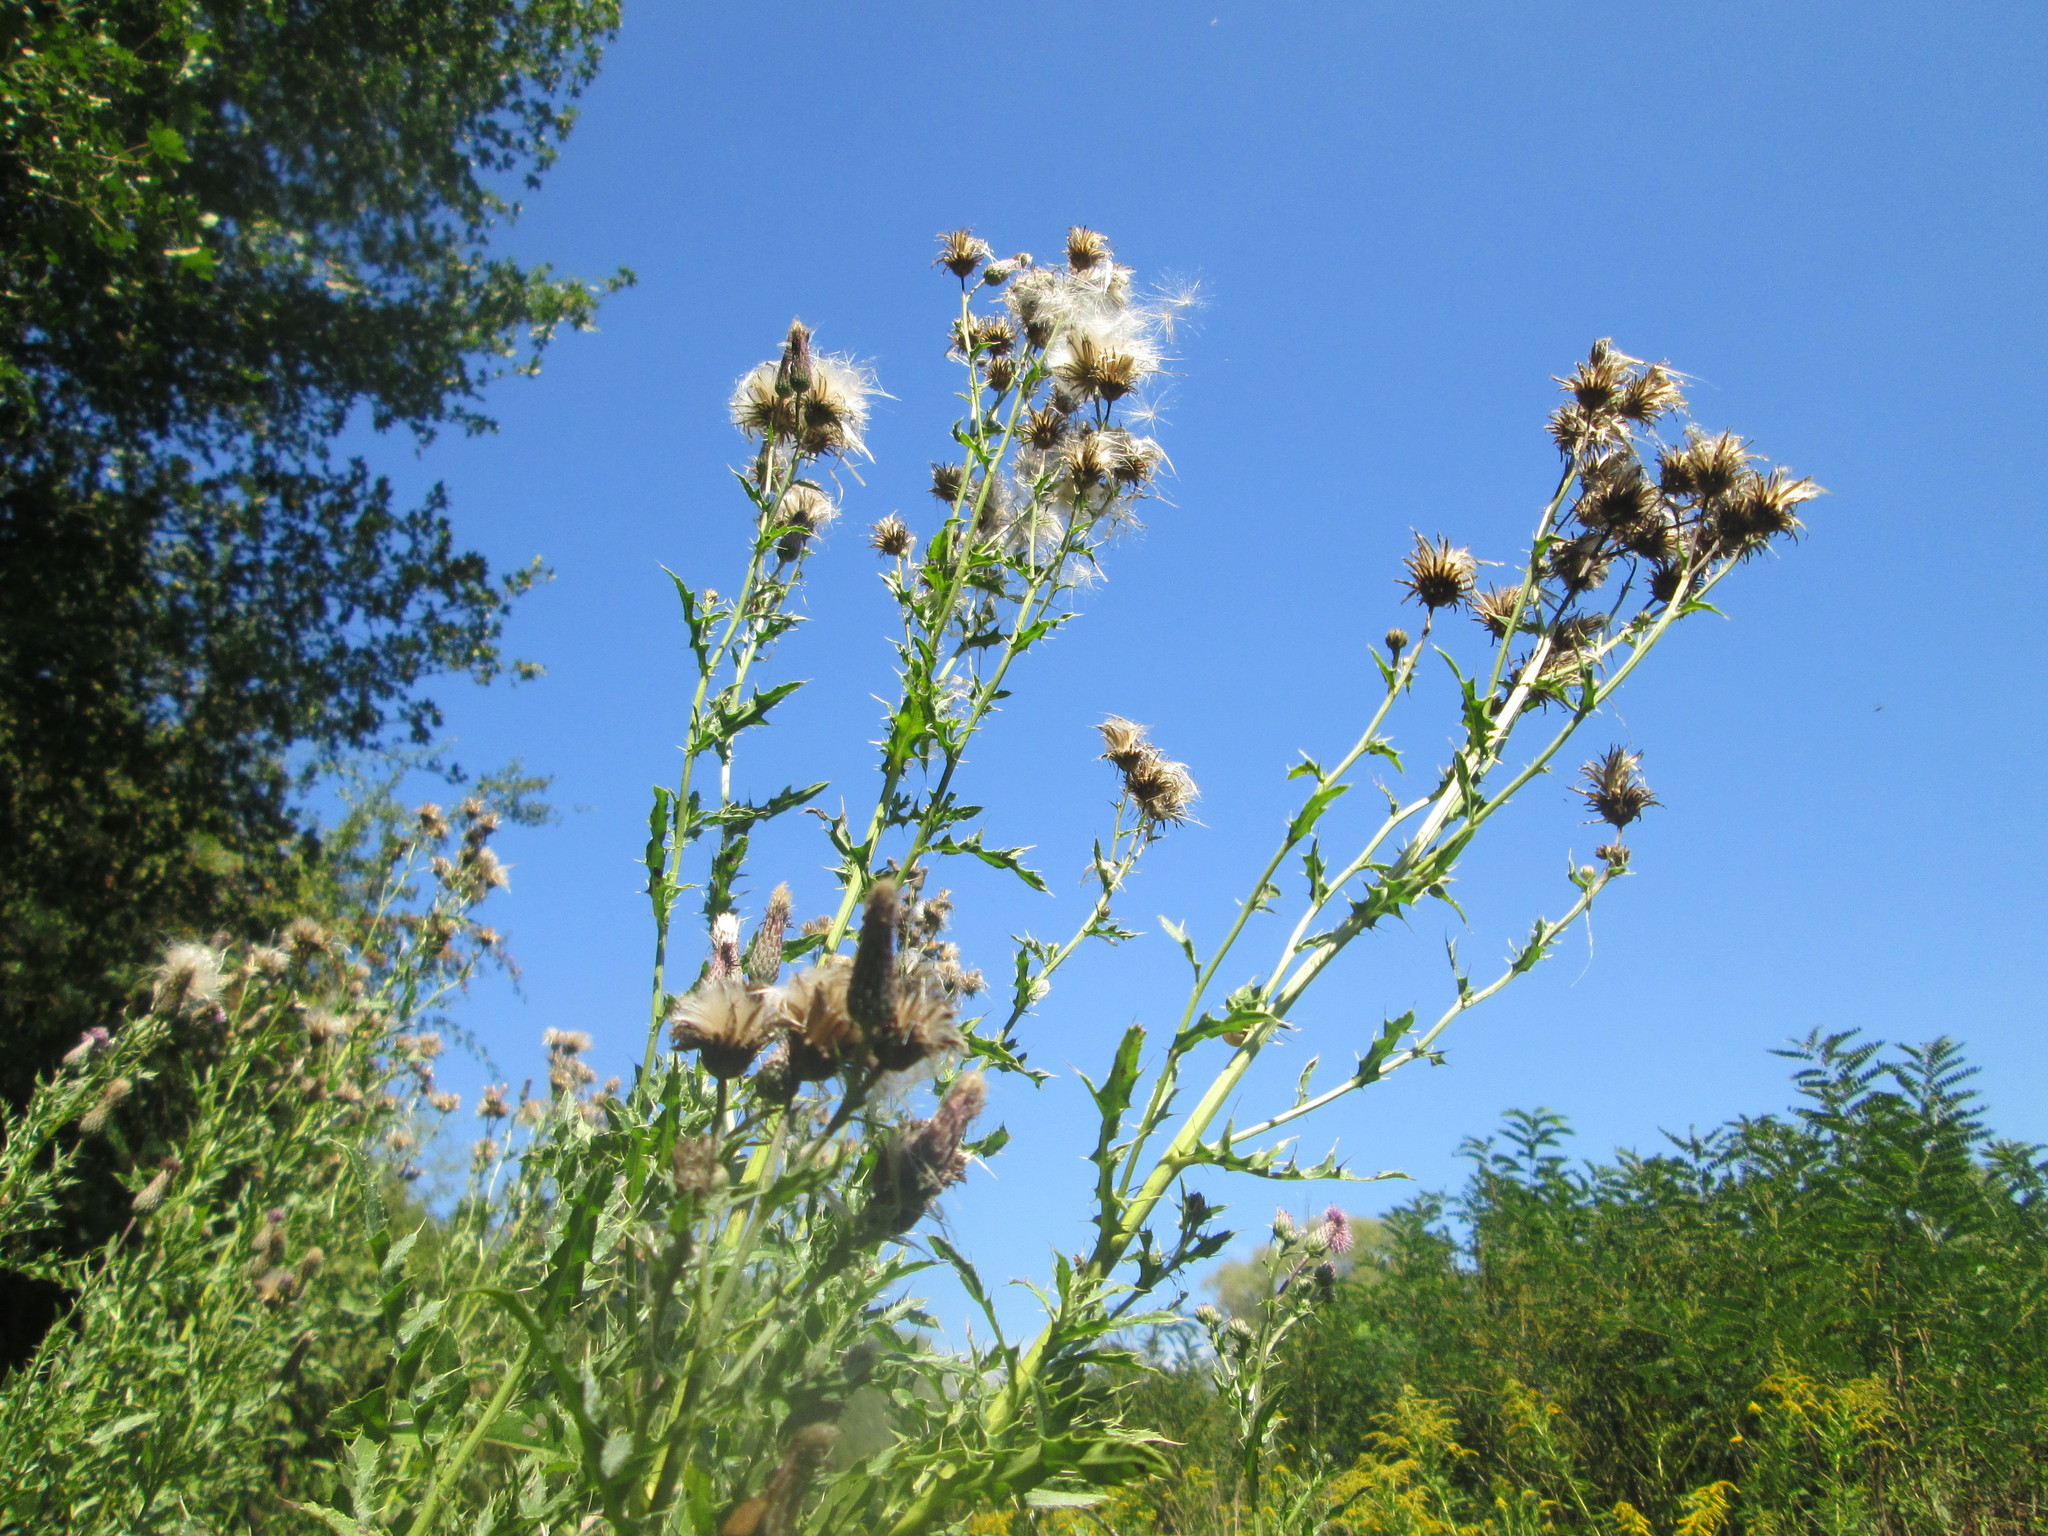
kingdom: Plantae
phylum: Tracheophyta
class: Magnoliopsida
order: Asterales
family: Asteraceae
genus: Cirsium
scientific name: Cirsium arvense
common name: Creeping thistle
